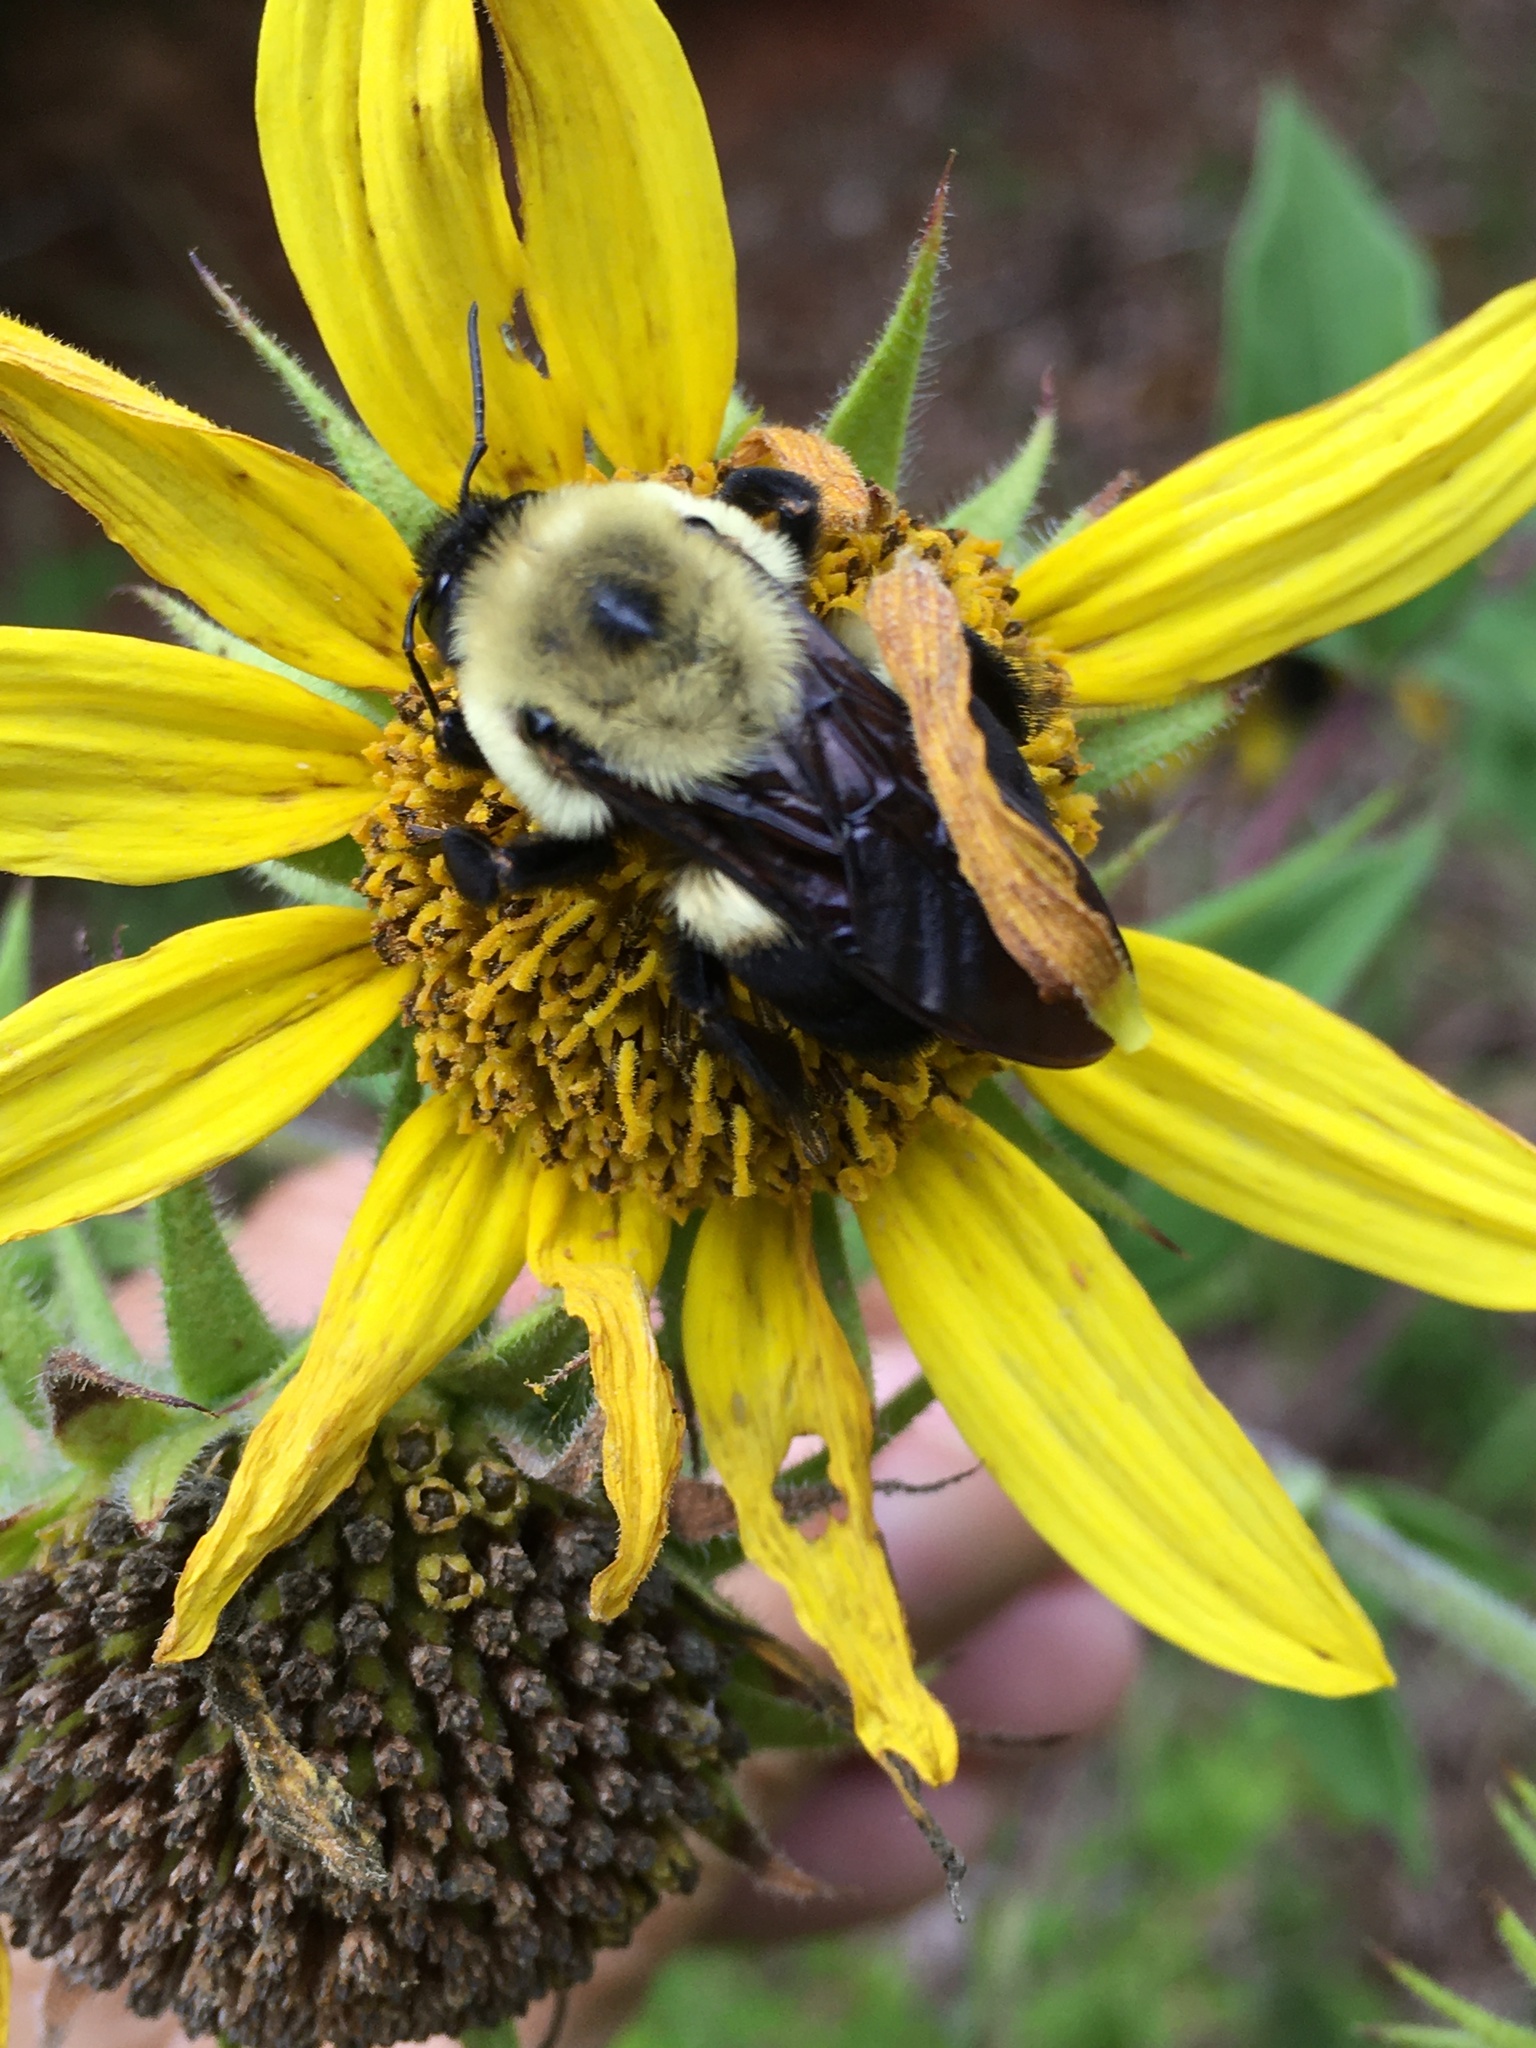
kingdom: Animalia
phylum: Arthropoda
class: Insecta
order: Hymenoptera
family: Apidae
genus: Bombus
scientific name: Bombus griseocollis
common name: Brown-belted bumble bee
